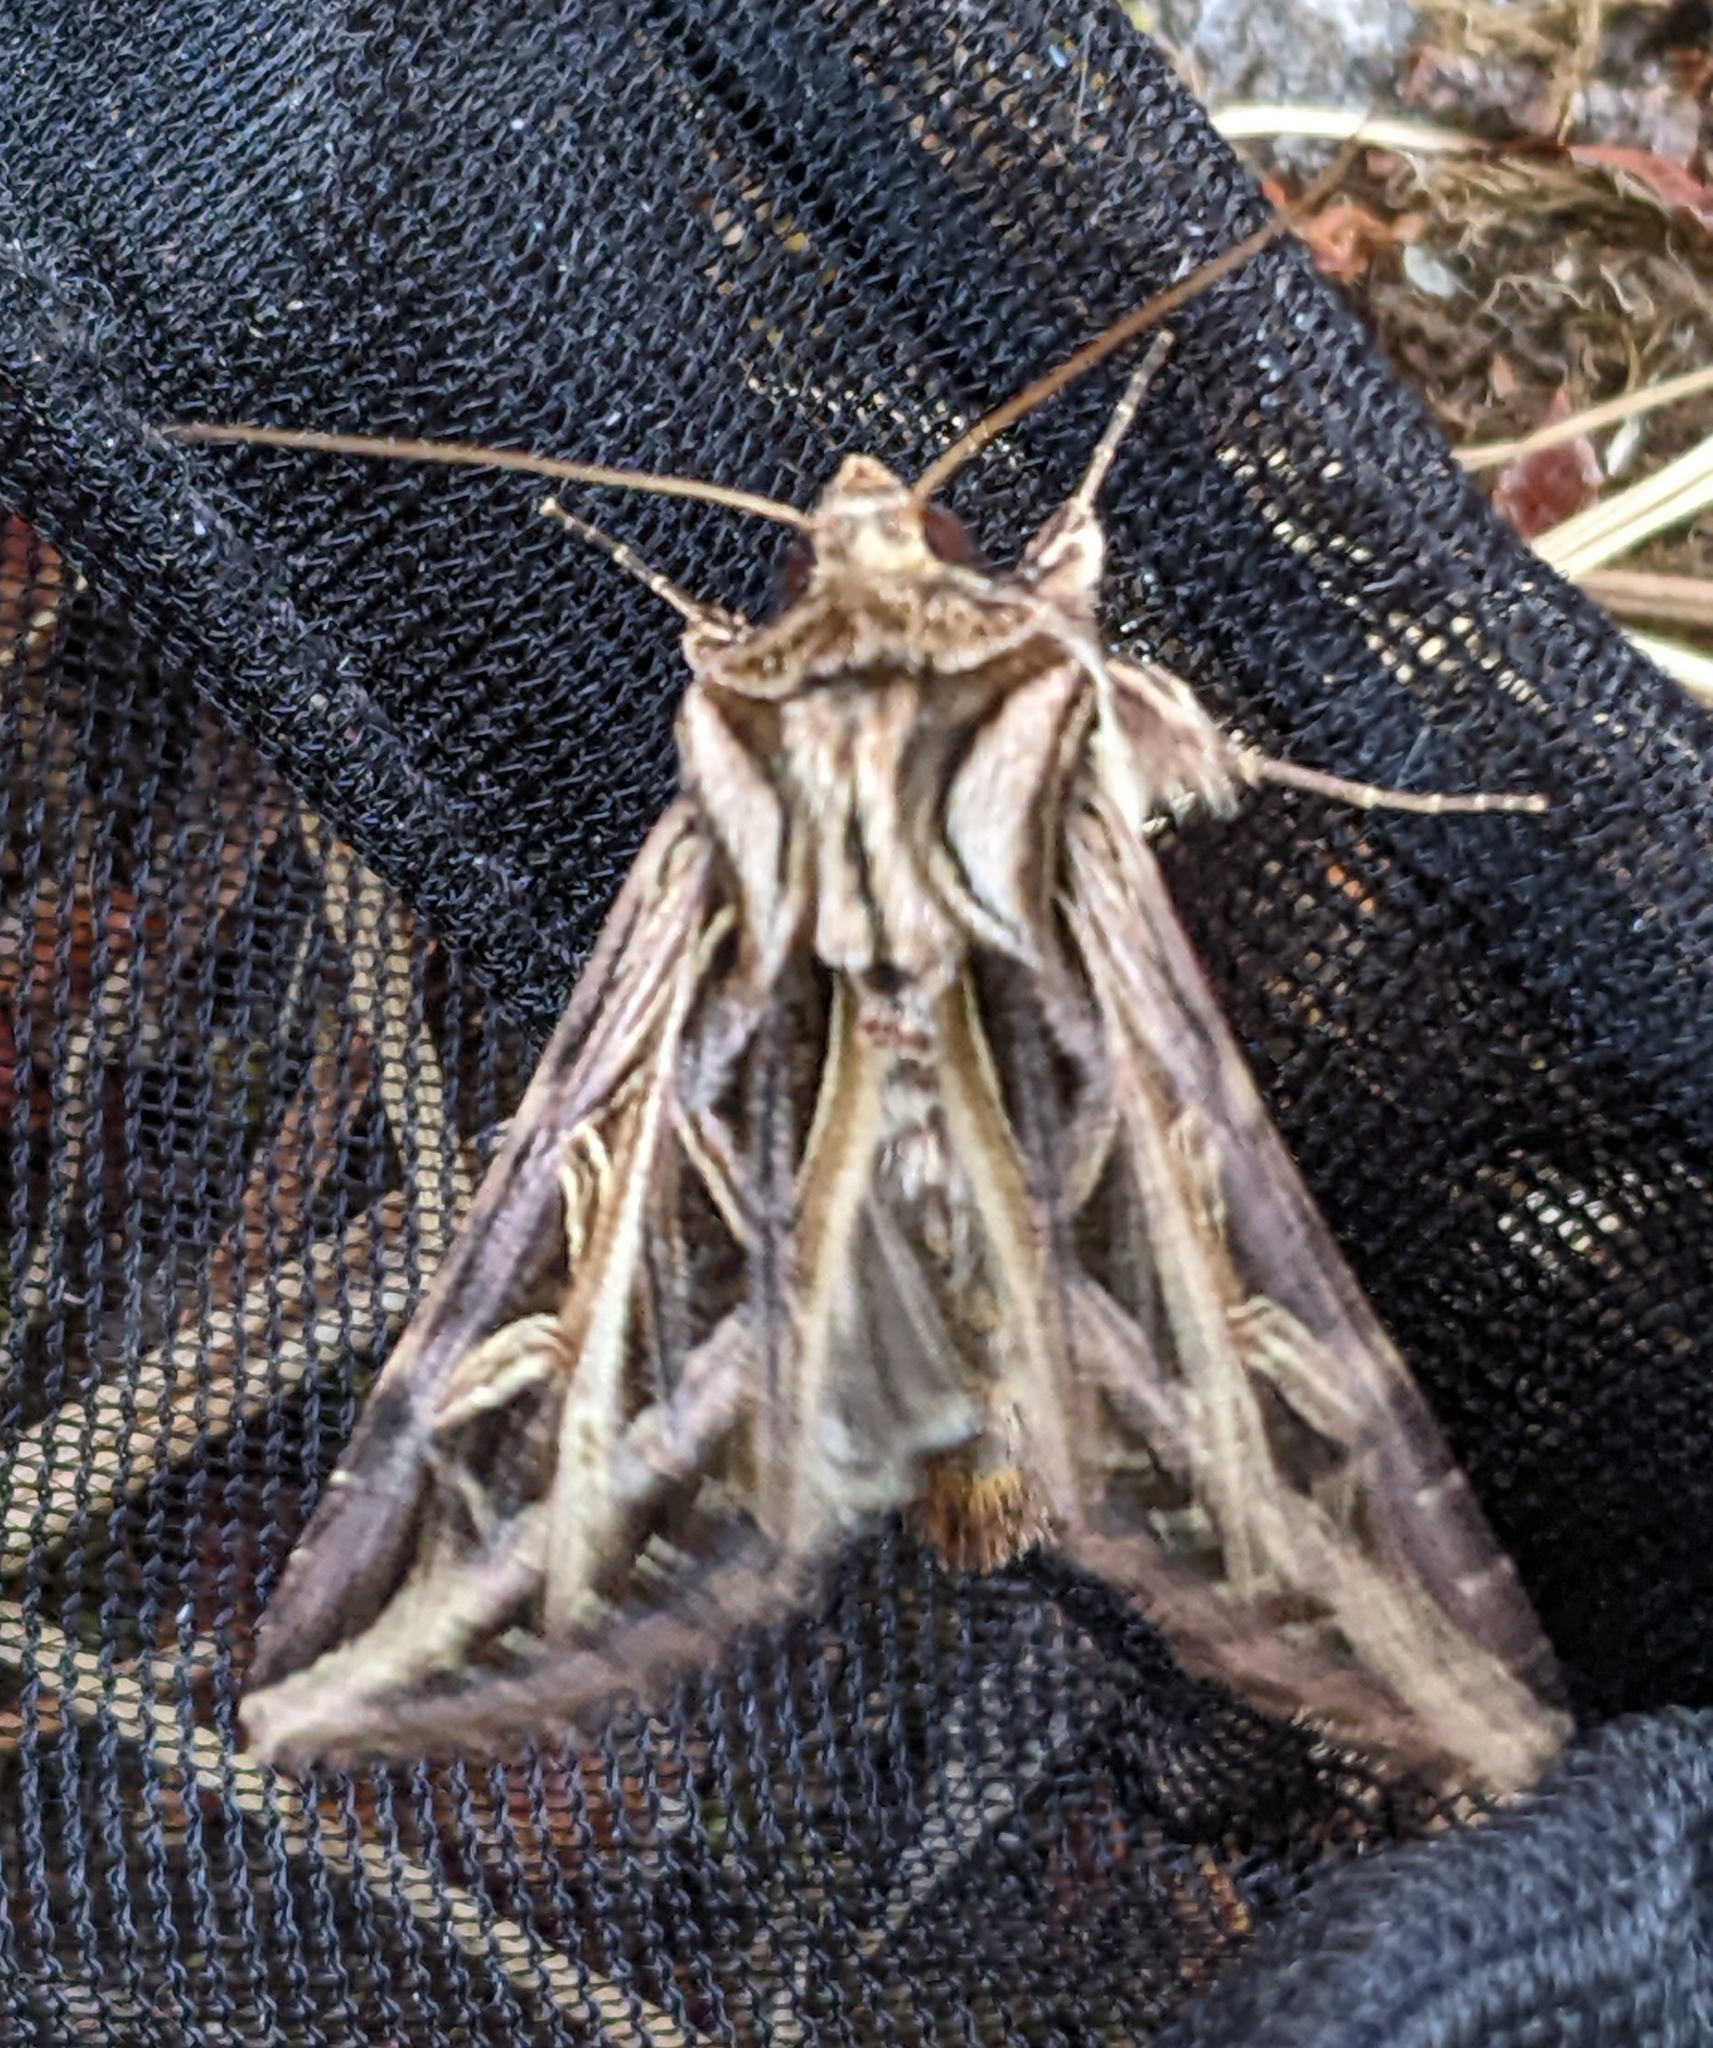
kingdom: Animalia
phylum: Arthropoda
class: Insecta
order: Lepidoptera
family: Noctuidae
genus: Dargida
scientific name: Dargida procinctus
